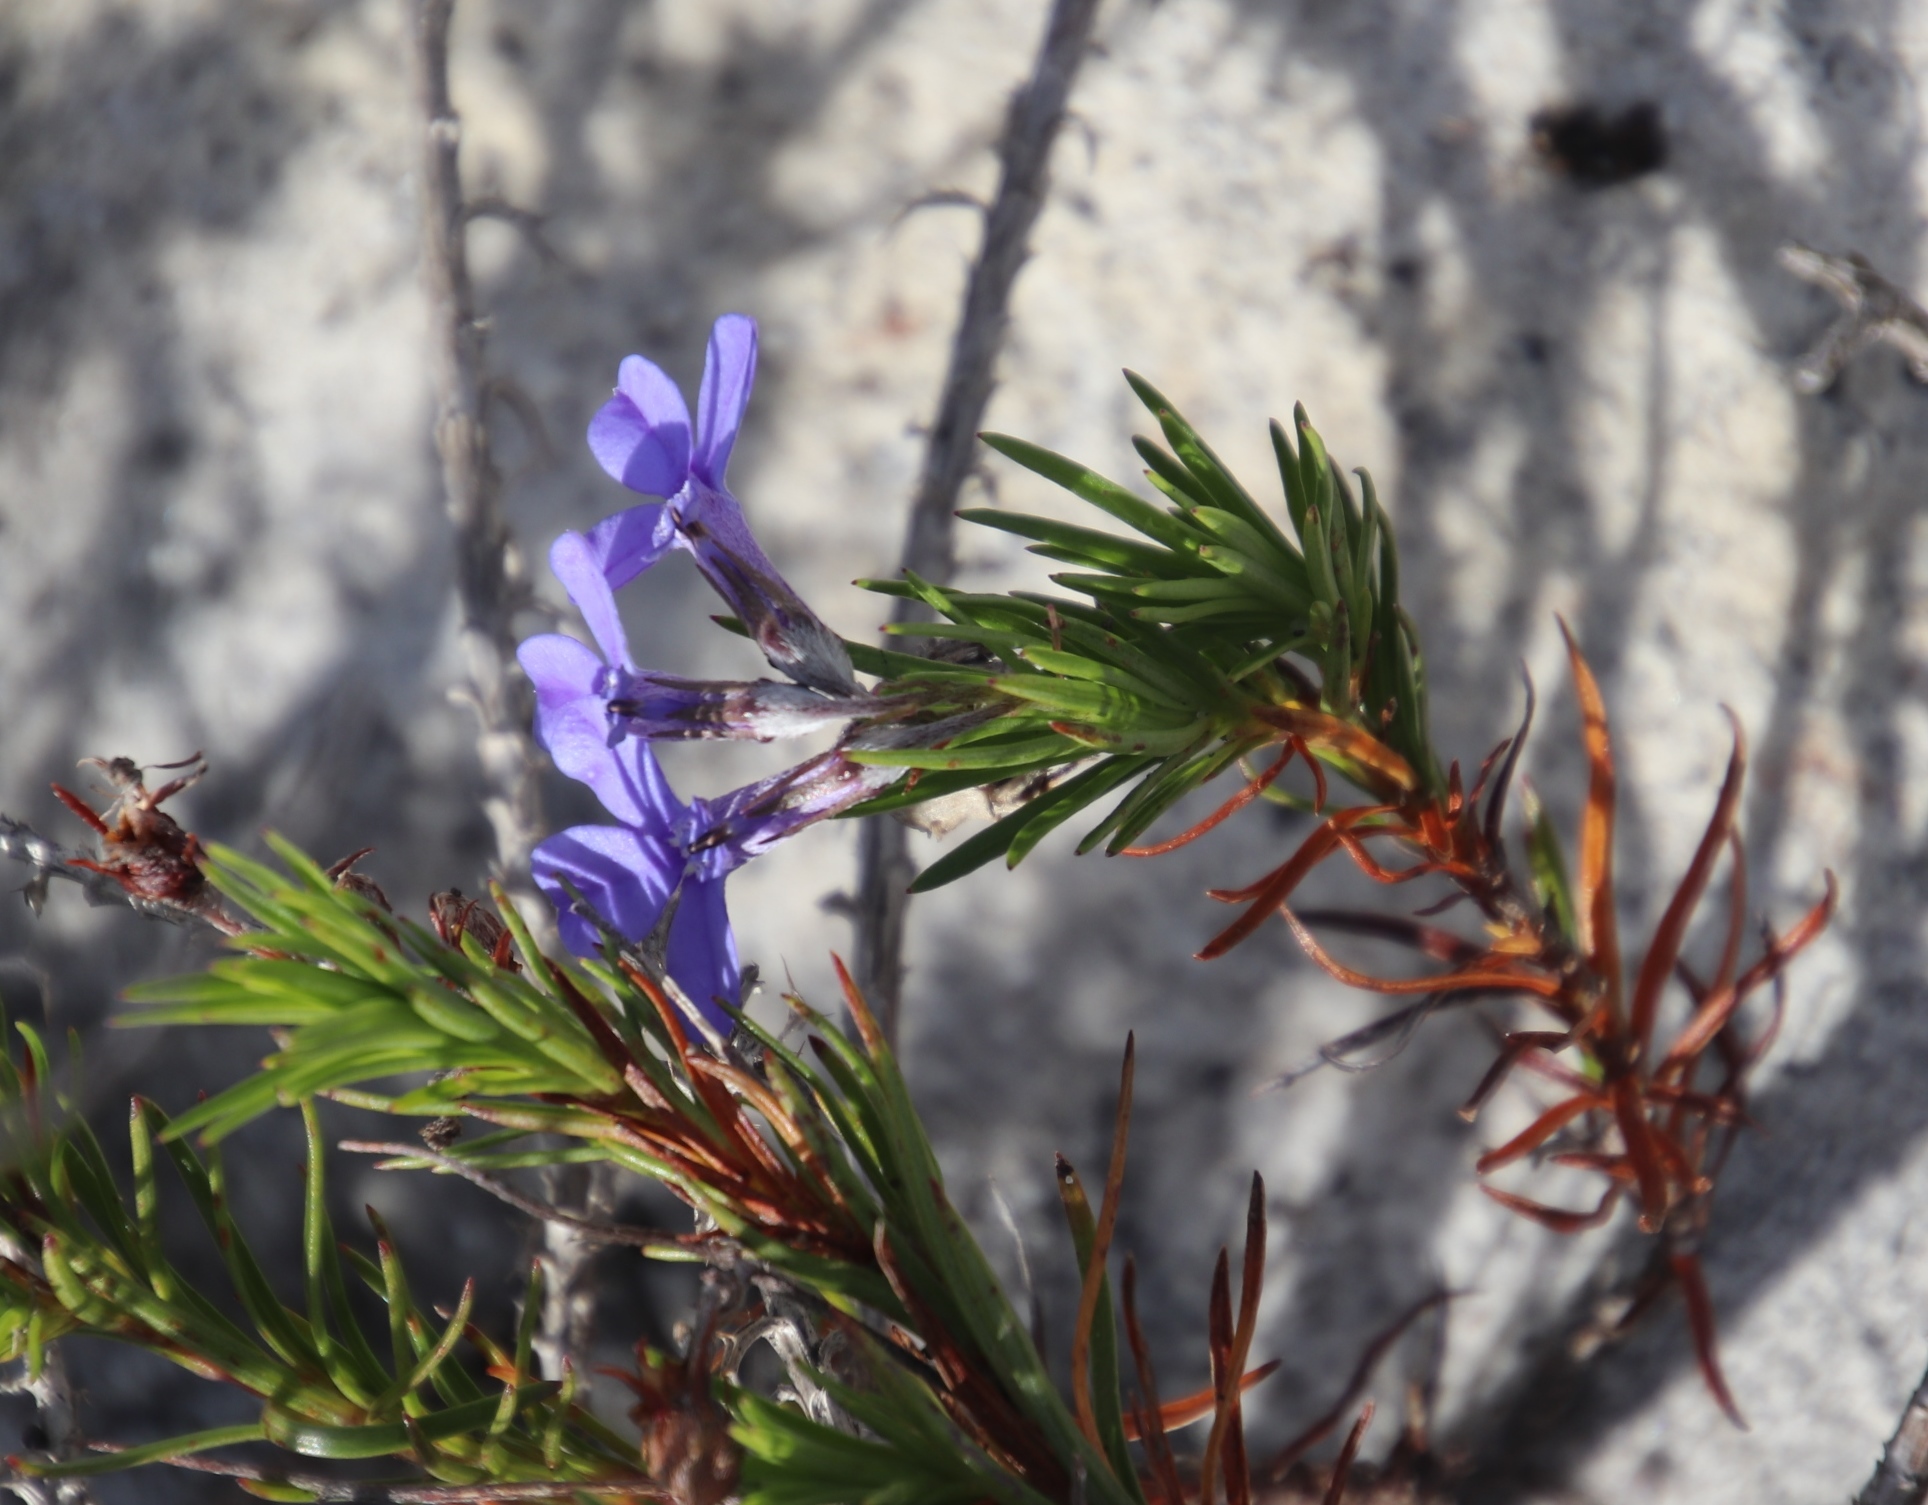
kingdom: Plantae
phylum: Tracheophyta
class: Magnoliopsida
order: Asterales
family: Campanulaceae
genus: Lobelia
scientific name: Lobelia pinifolia
